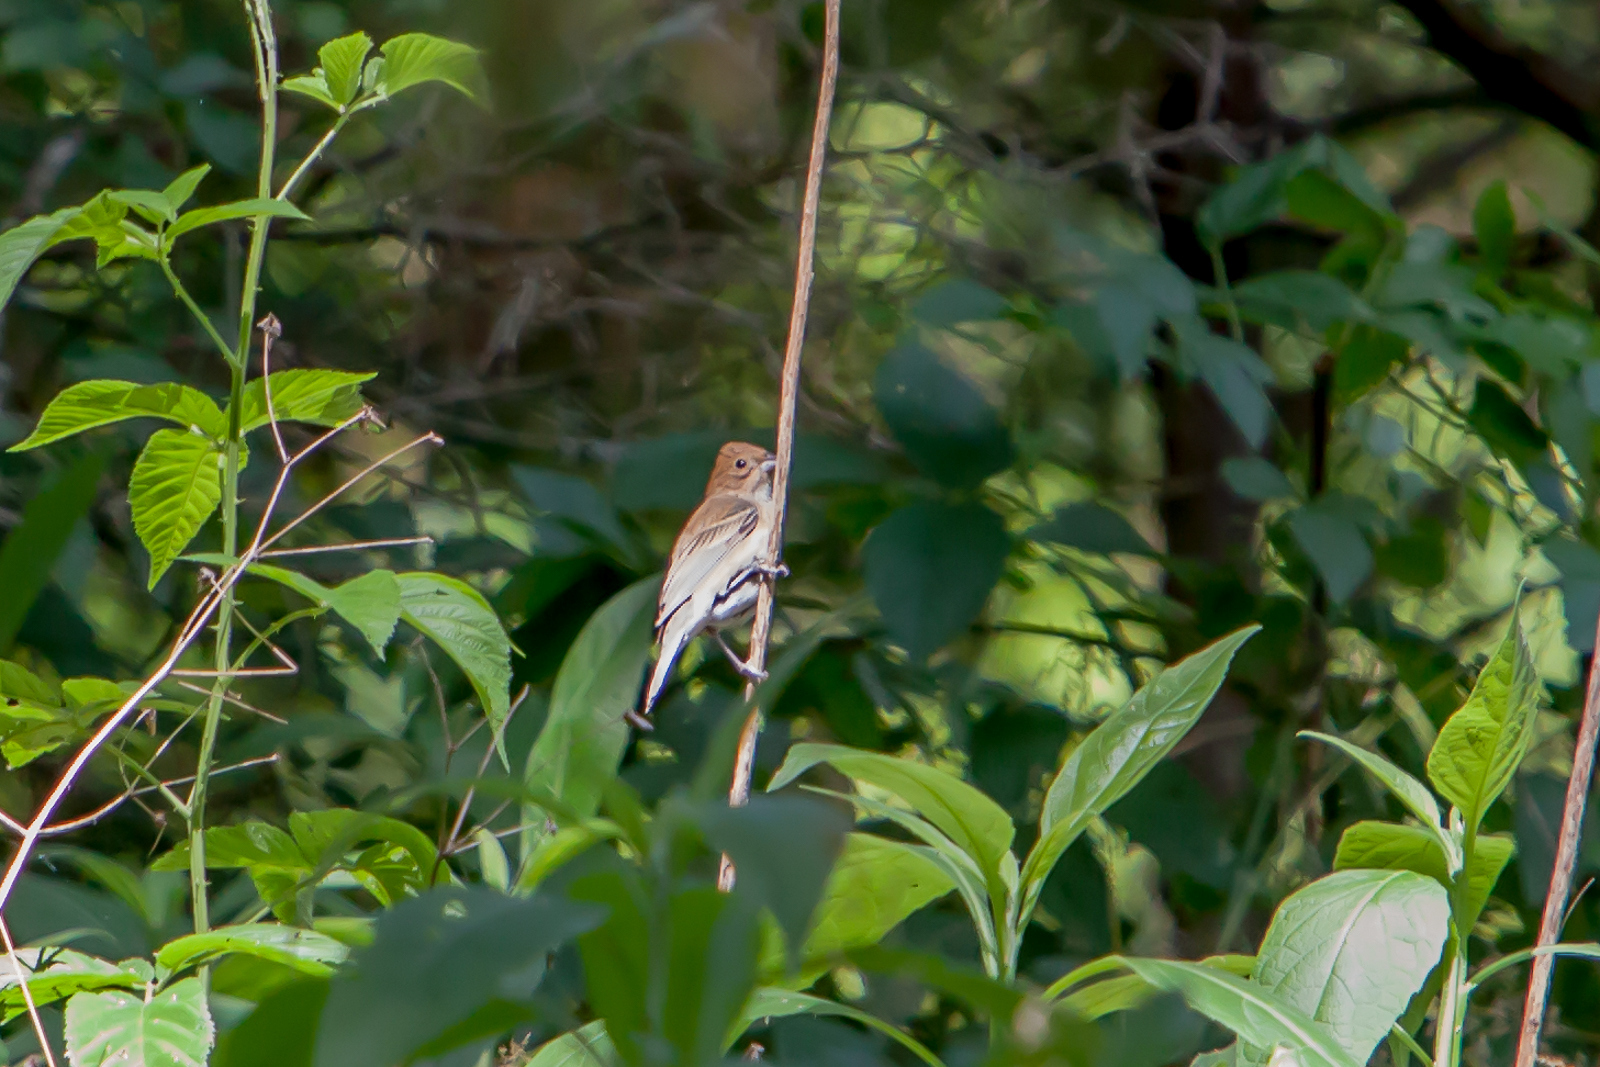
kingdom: Animalia
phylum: Chordata
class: Aves
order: Passeriformes
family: Cardinalidae
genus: Passerina
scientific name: Passerina cyanea
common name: Indigo bunting
